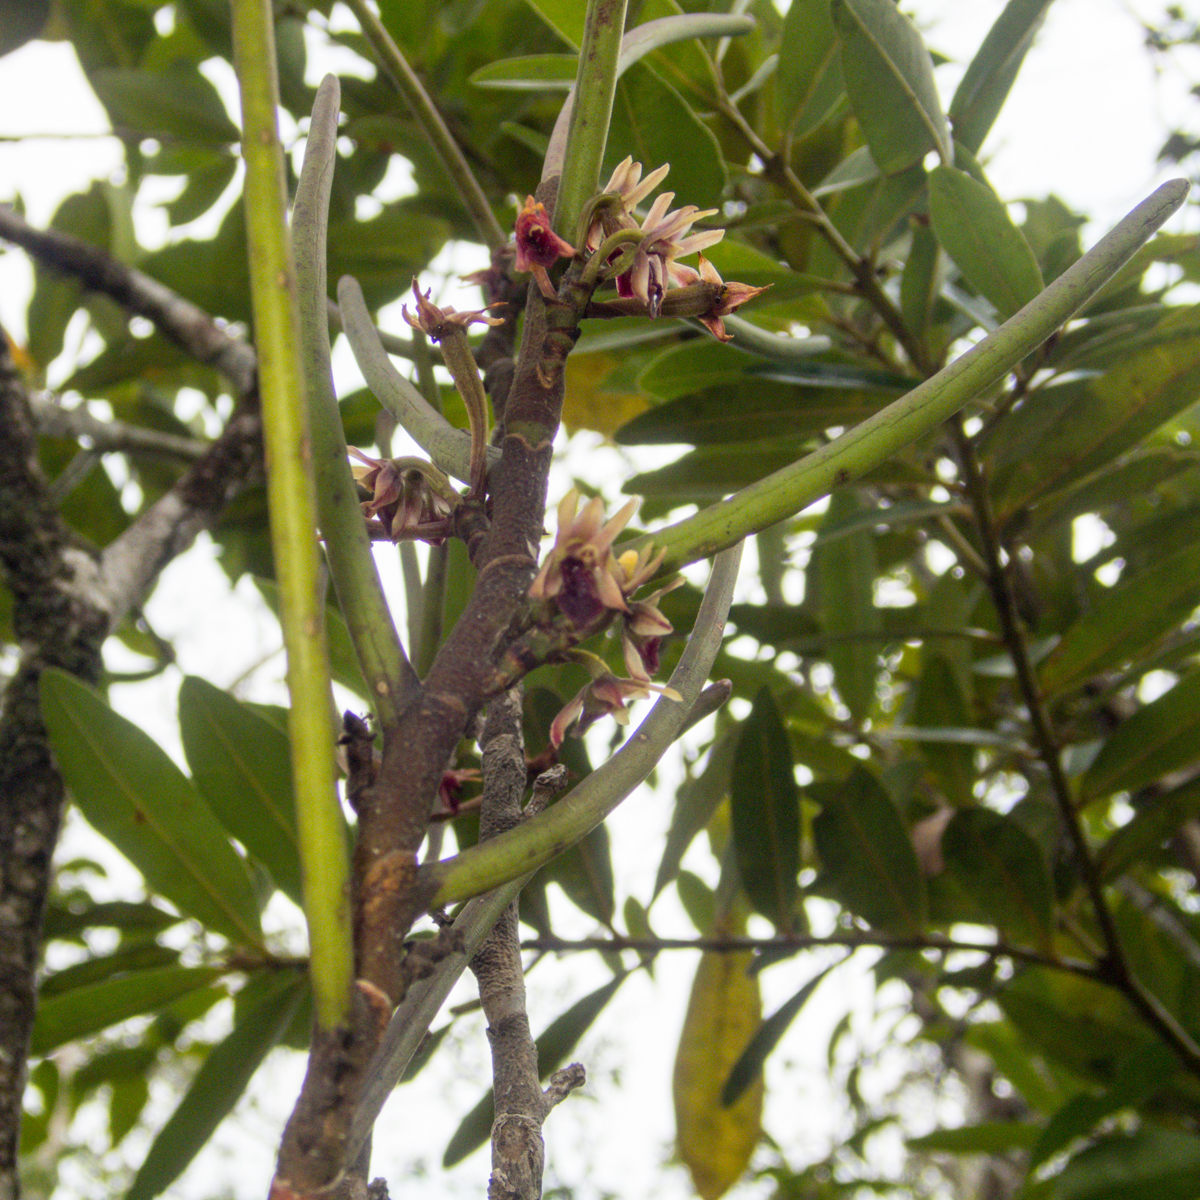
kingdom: Plantae
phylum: Tracheophyta
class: Liliopsida
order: Asparagales
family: Orchidaceae
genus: Luisia
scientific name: Luisia brachystachys
